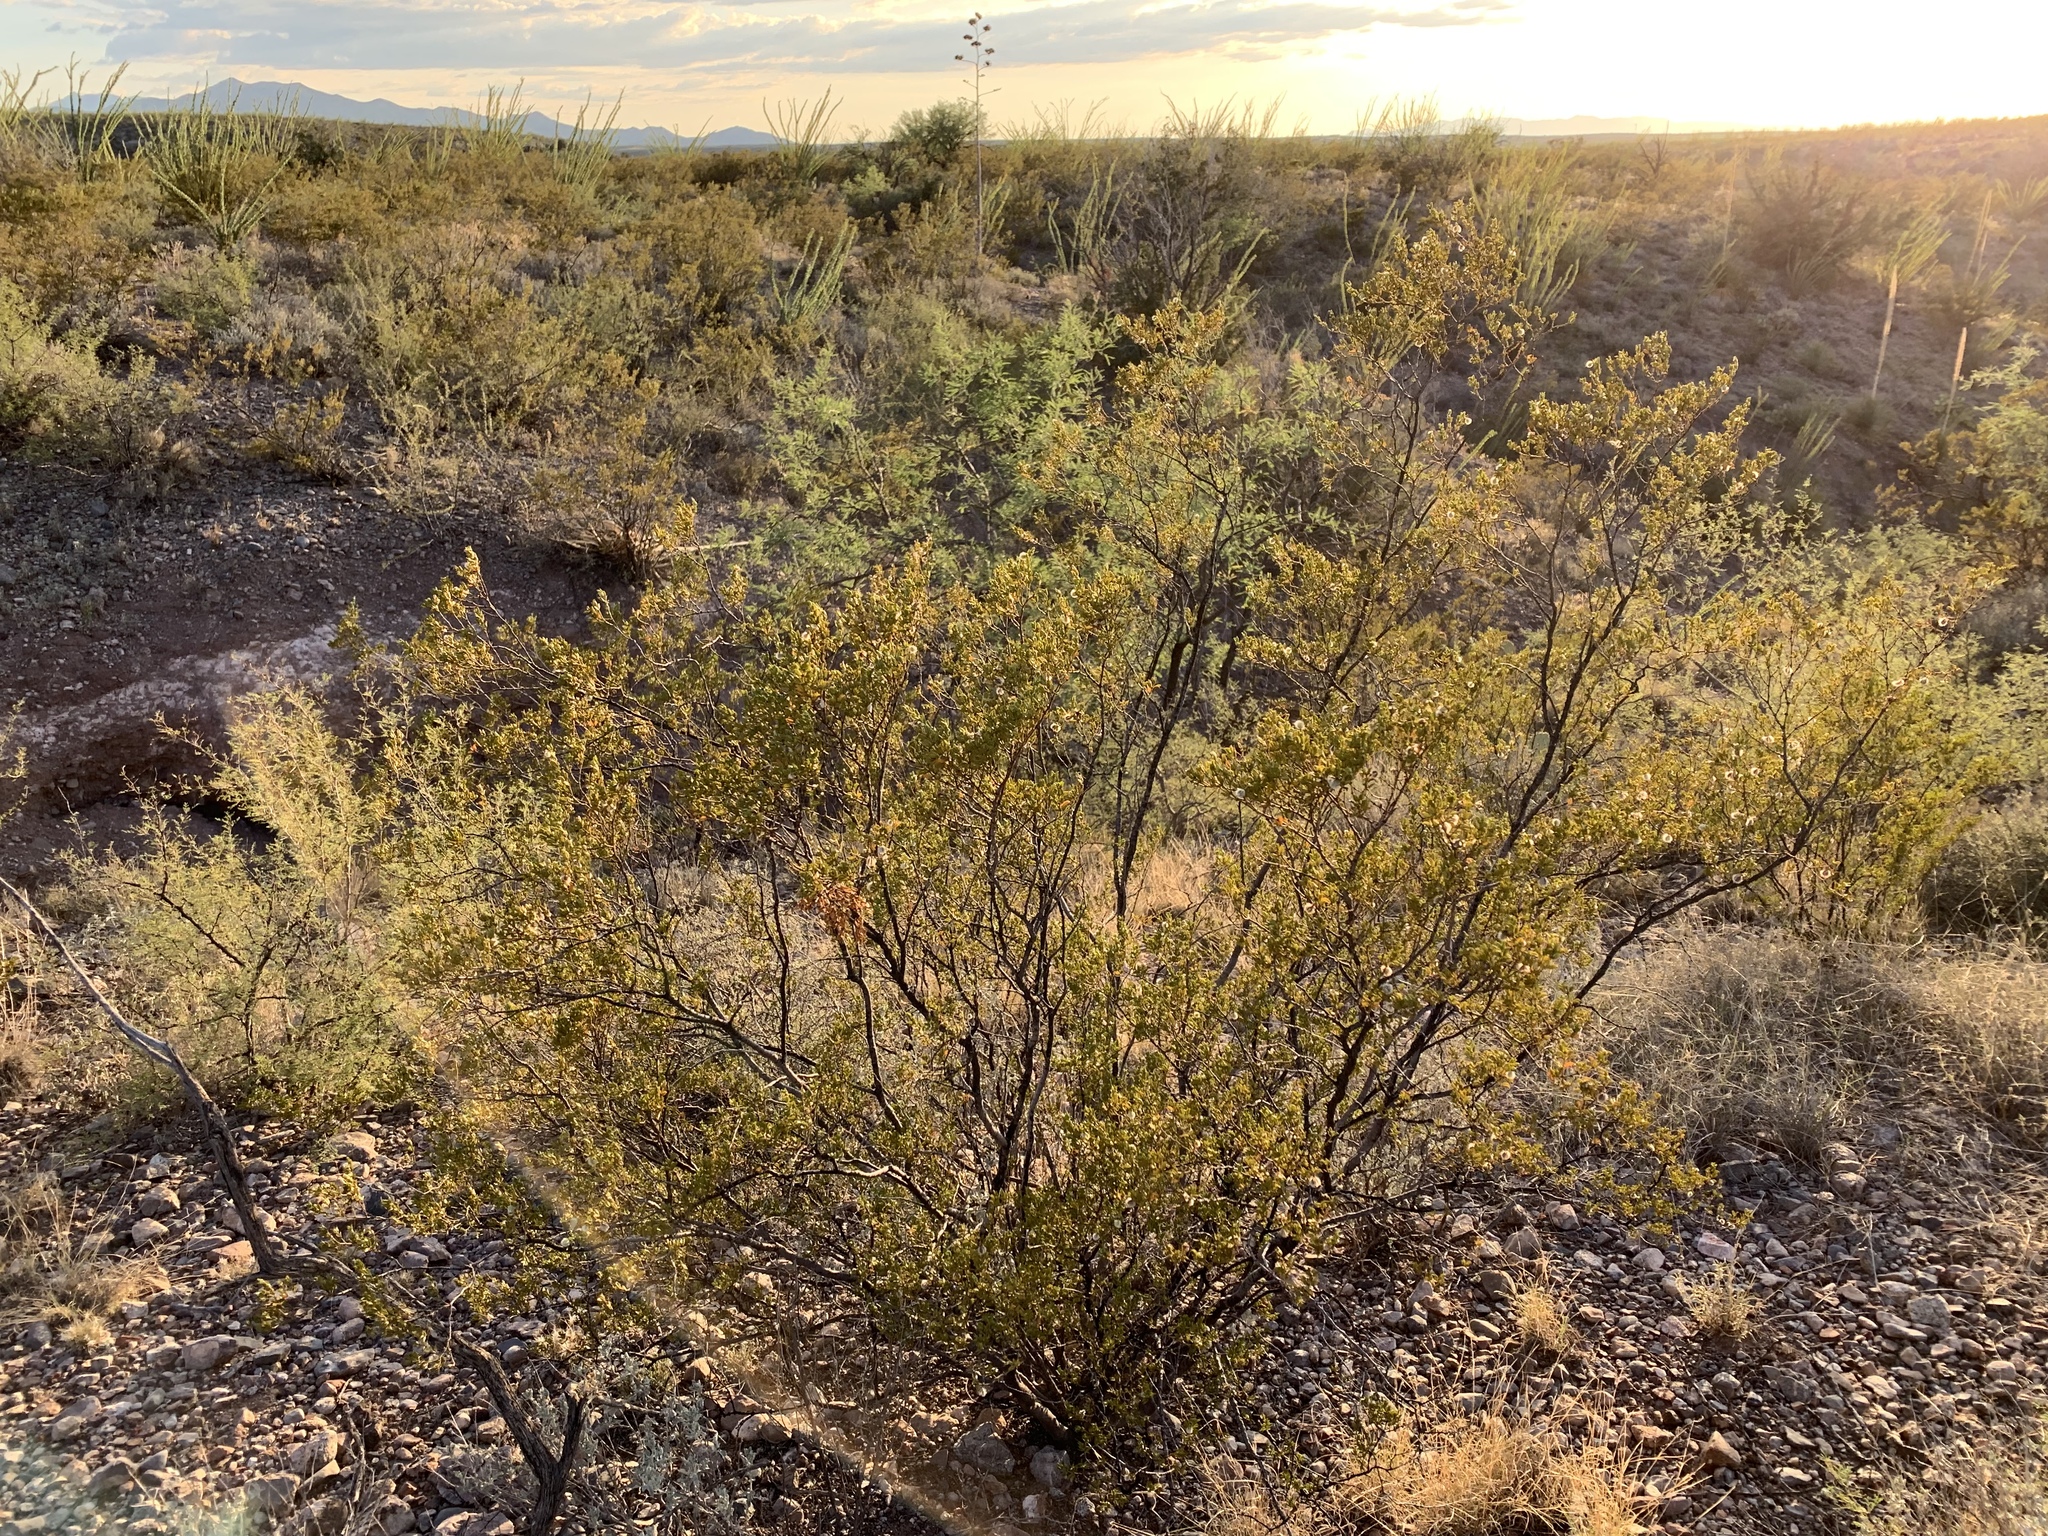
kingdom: Plantae
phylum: Tracheophyta
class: Magnoliopsida
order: Zygophyllales
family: Zygophyllaceae
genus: Larrea
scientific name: Larrea tridentata
